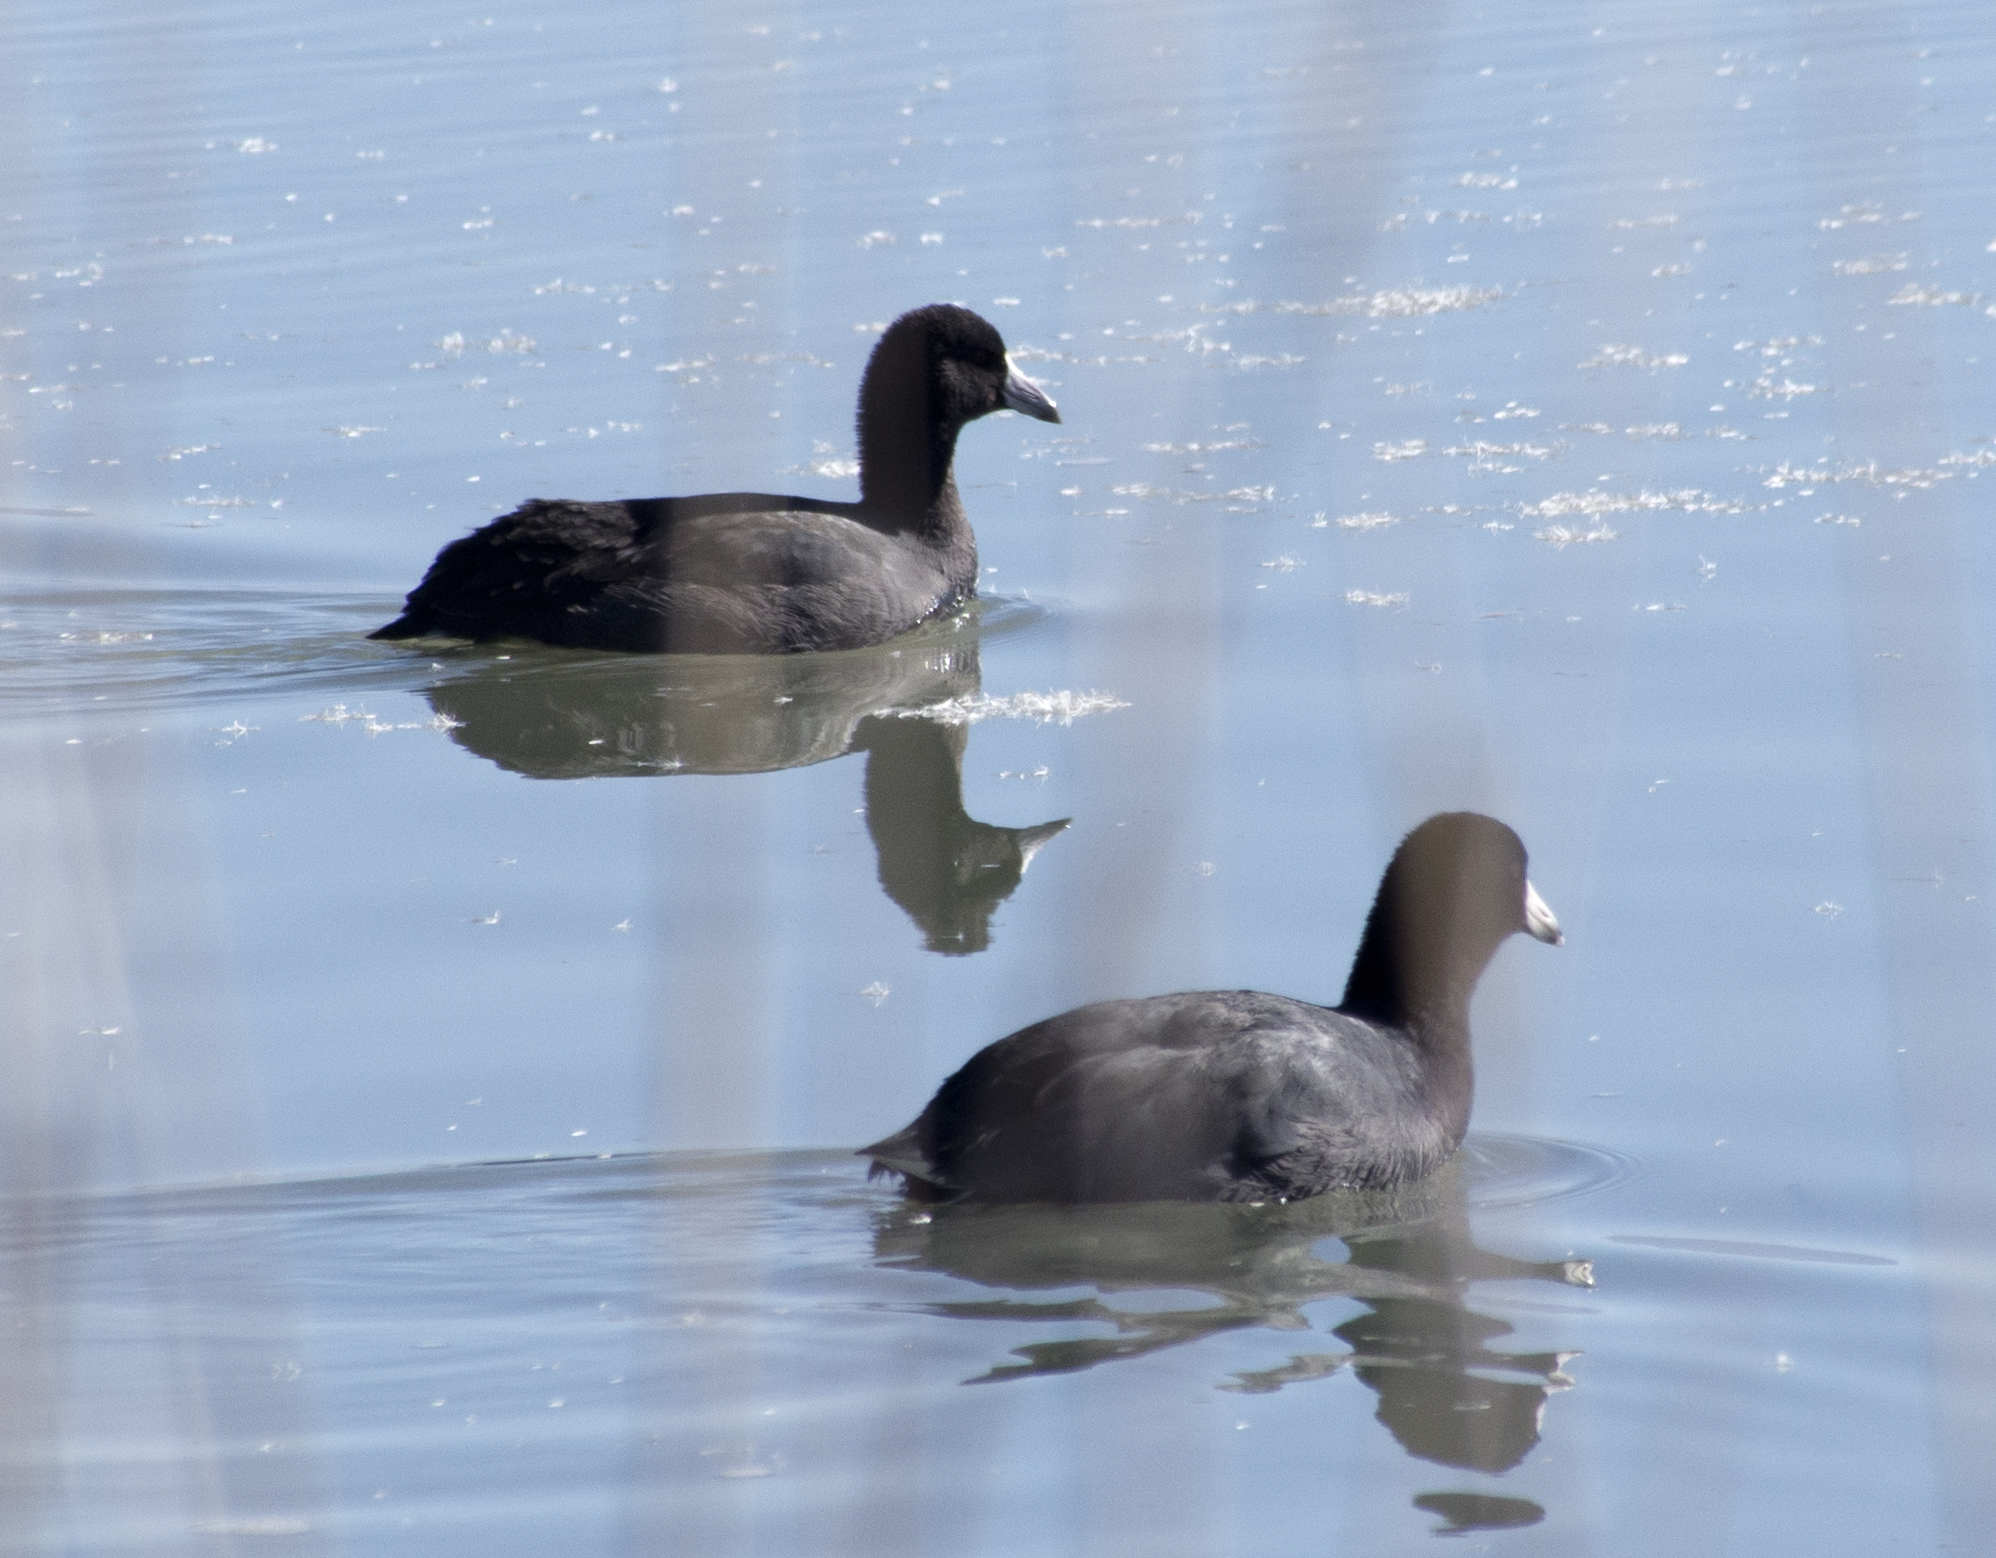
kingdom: Animalia
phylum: Chordata
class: Aves
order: Gruiformes
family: Rallidae
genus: Fulica
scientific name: Fulica americana
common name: American coot
